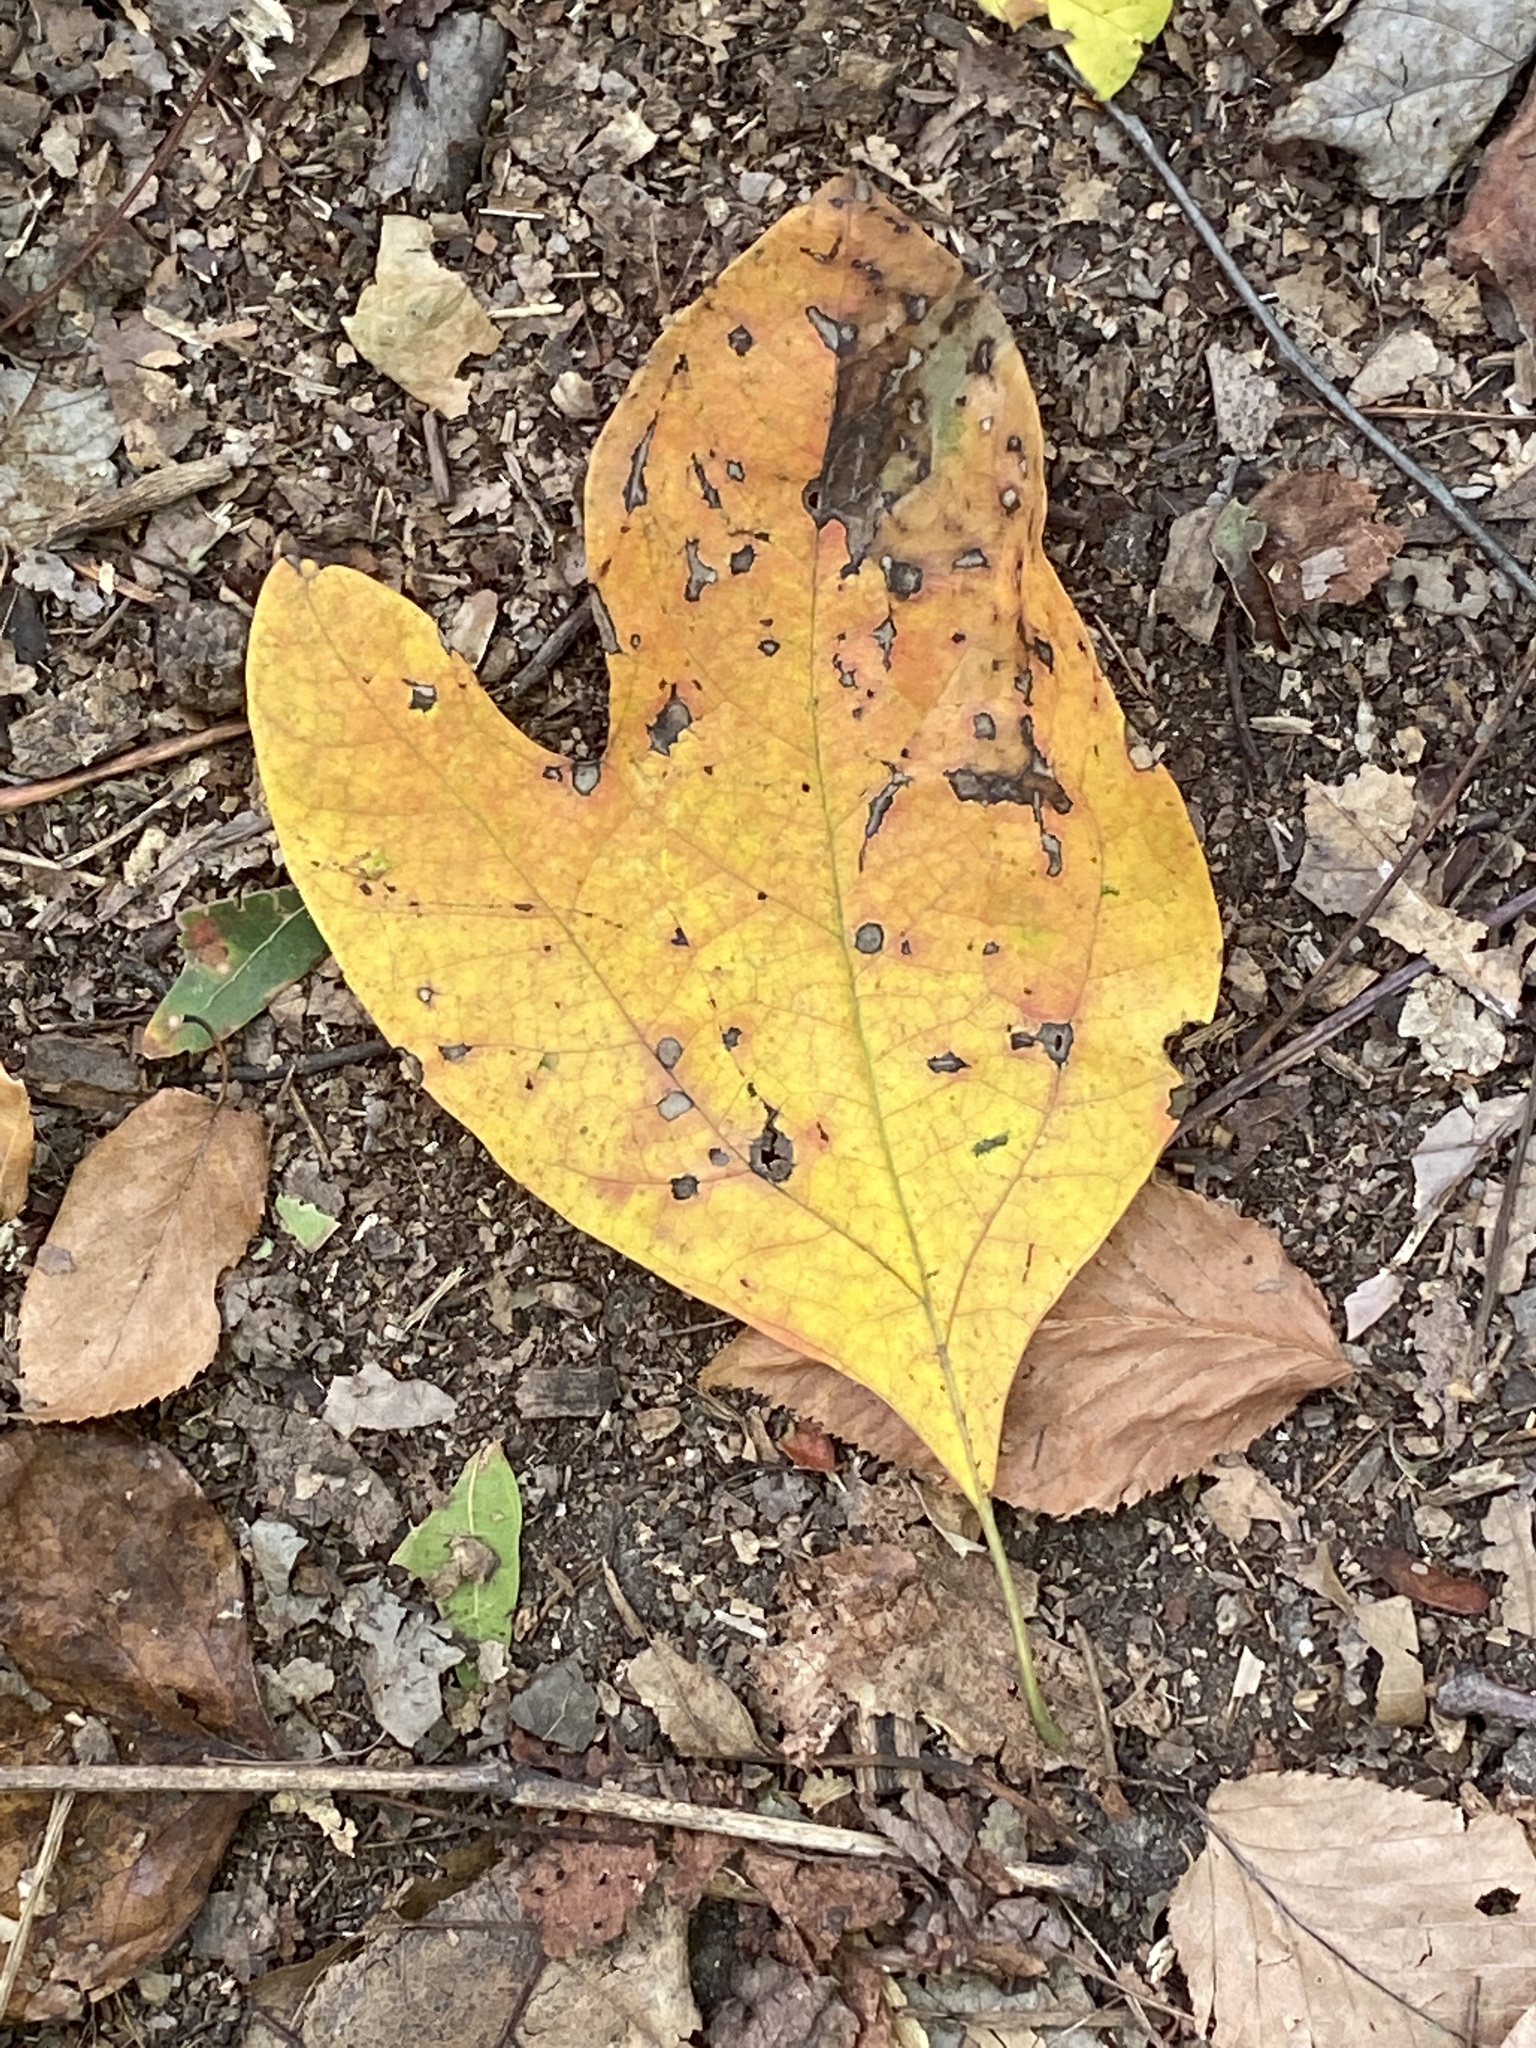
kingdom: Plantae
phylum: Tracheophyta
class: Magnoliopsida
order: Laurales
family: Lauraceae
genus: Sassafras
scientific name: Sassafras albidum
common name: Sassafras
